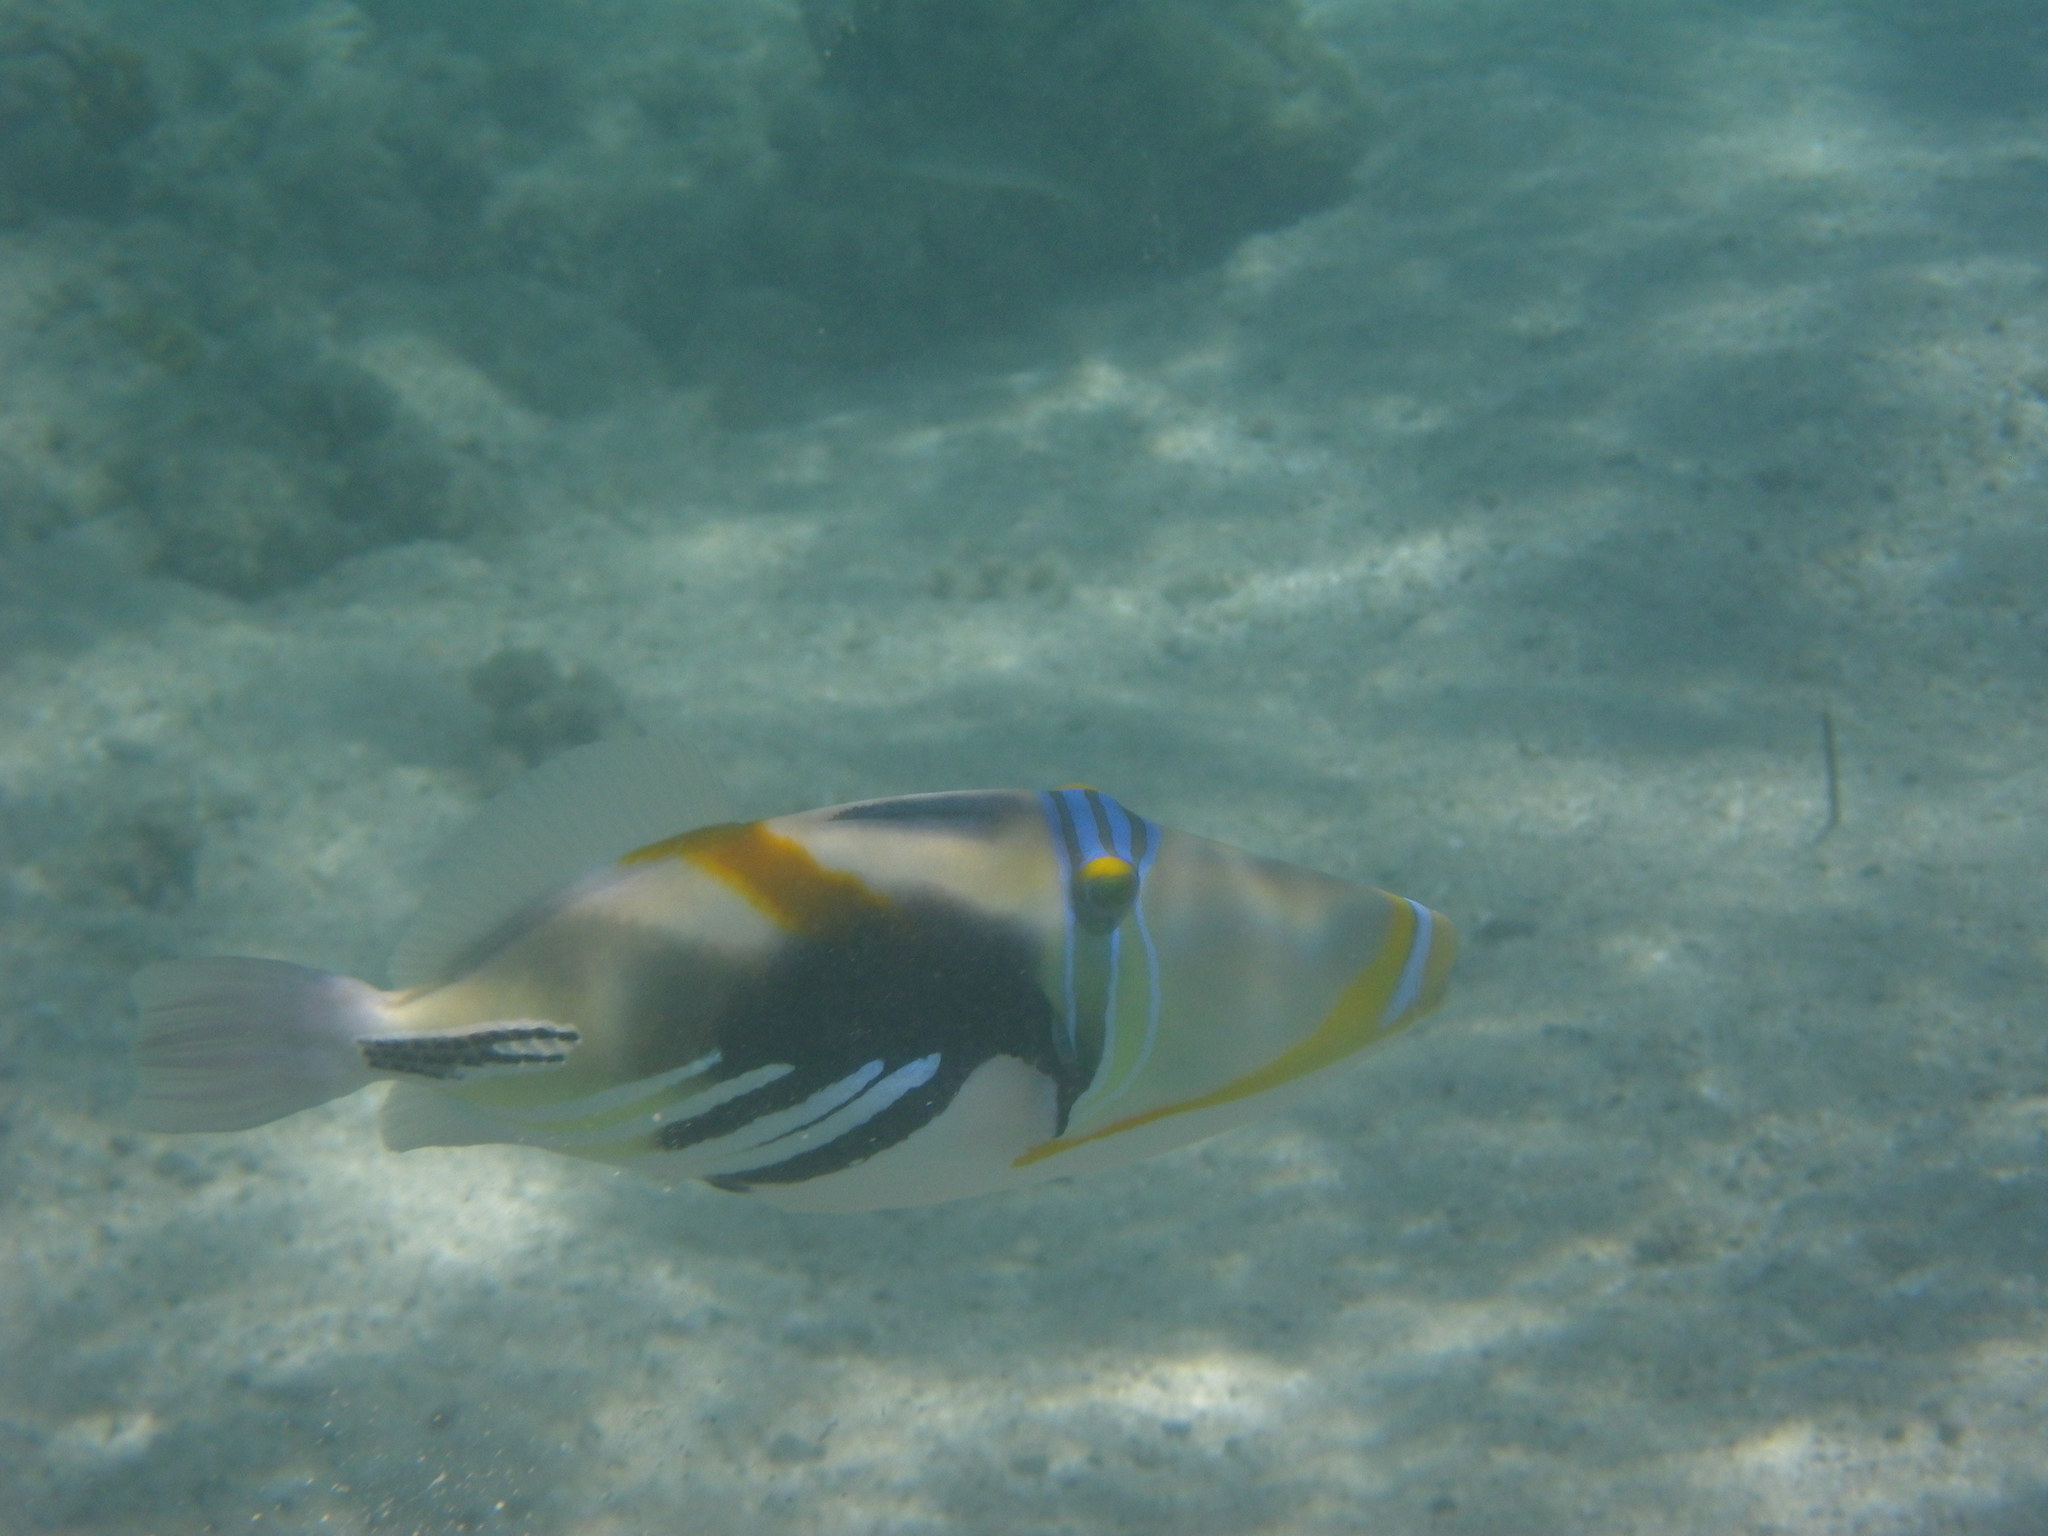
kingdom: Animalia
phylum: Chordata
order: Tetraodontiformes
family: Balistidae
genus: Rhinecanthus
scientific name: Rhinecanthus aculeatus
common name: White-banded triggerfish
